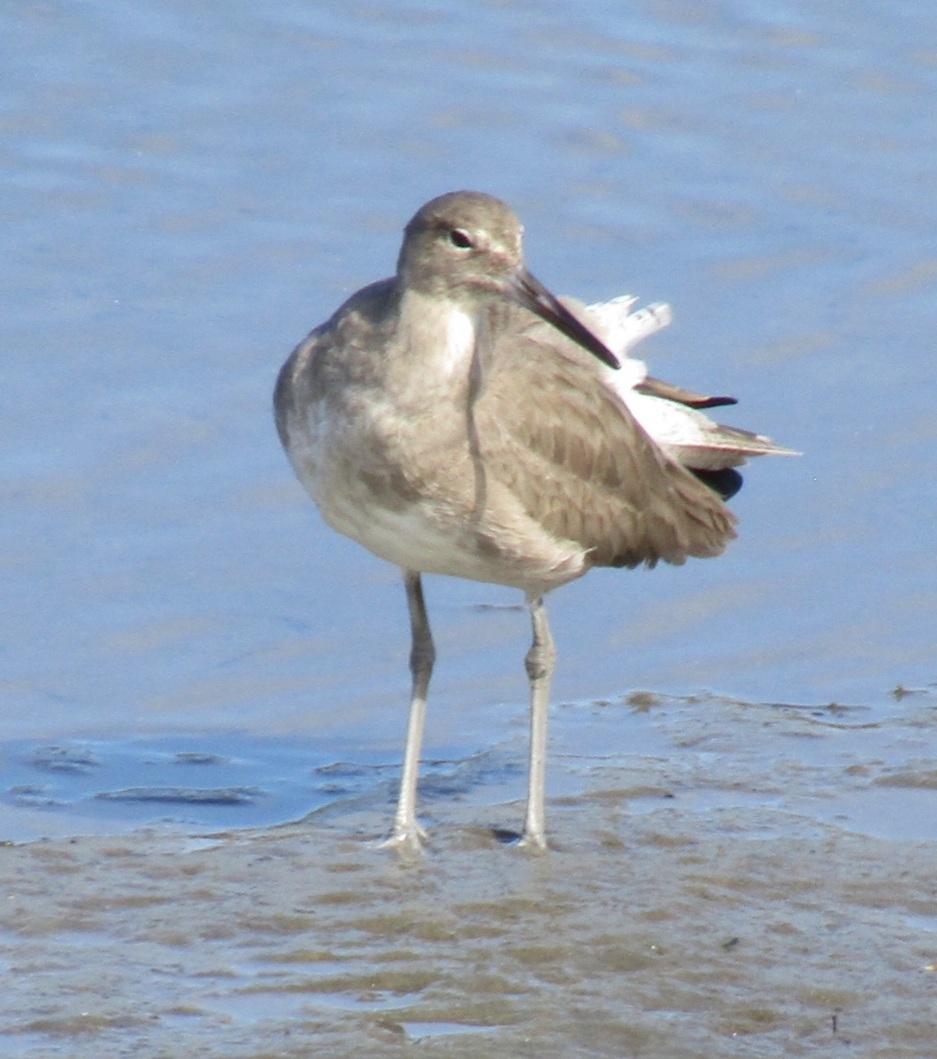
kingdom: Animalia
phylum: Chordata
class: Aves
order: Charadriiformes
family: Scolopacidae
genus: Tringa
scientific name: Tringa semipalmata
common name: Willet
